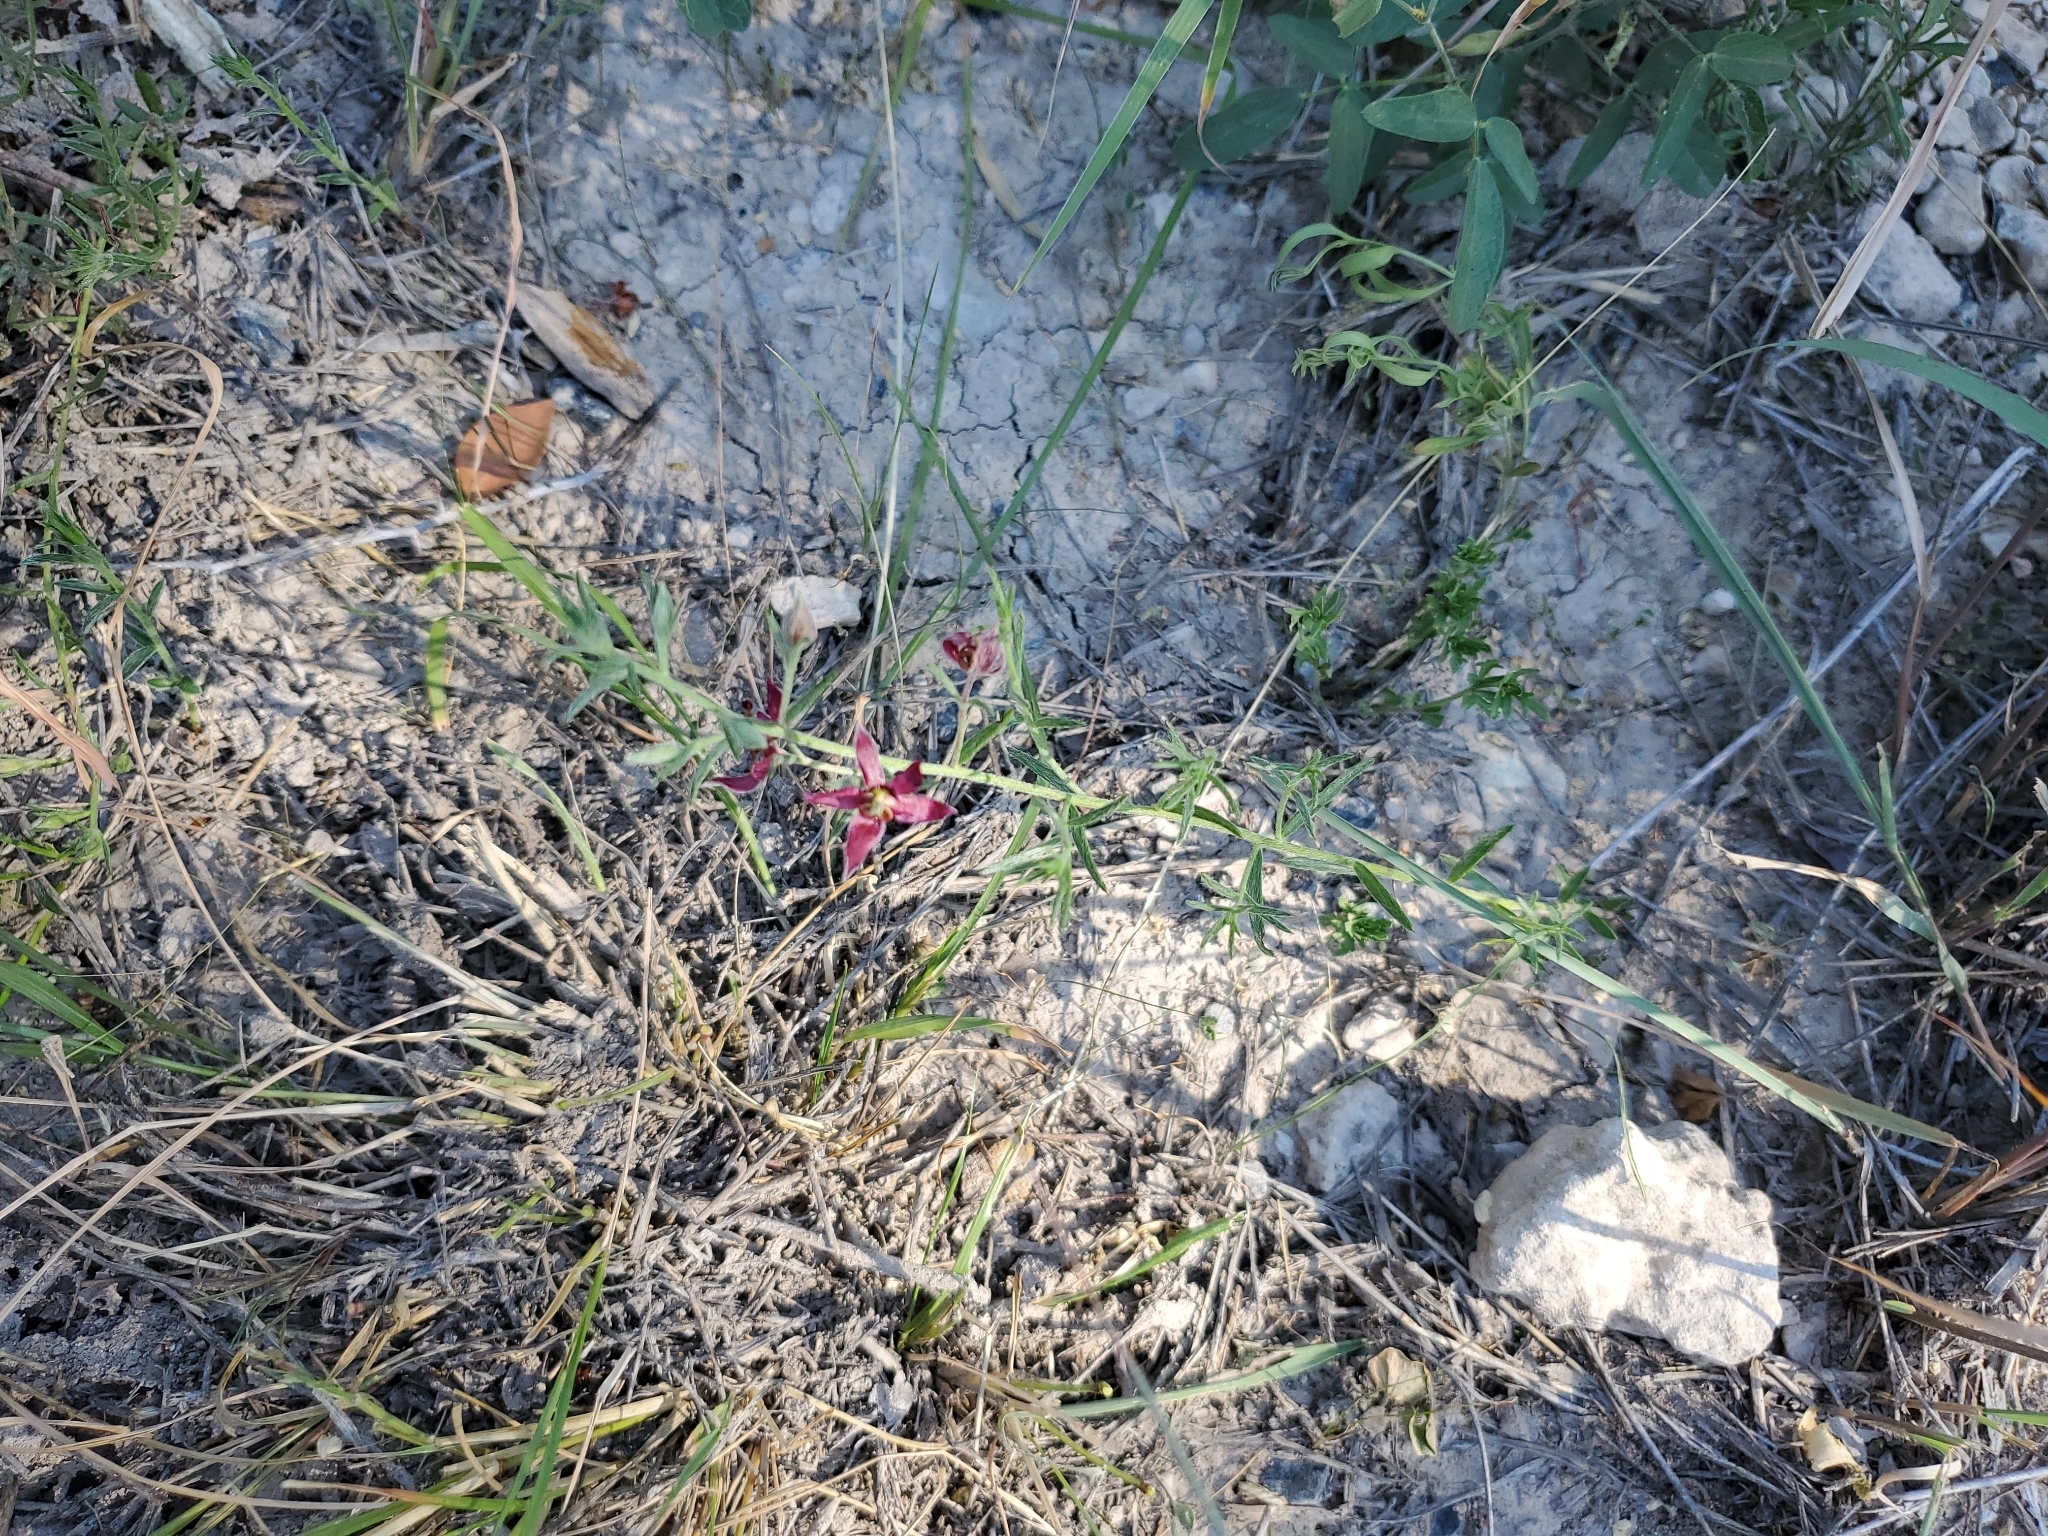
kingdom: Plantae
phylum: Tracheophyta
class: Magnoliopsida
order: Zygophyllales
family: Krameriaceae
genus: Krameria
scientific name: Krameria lanceolata
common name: Ratany
